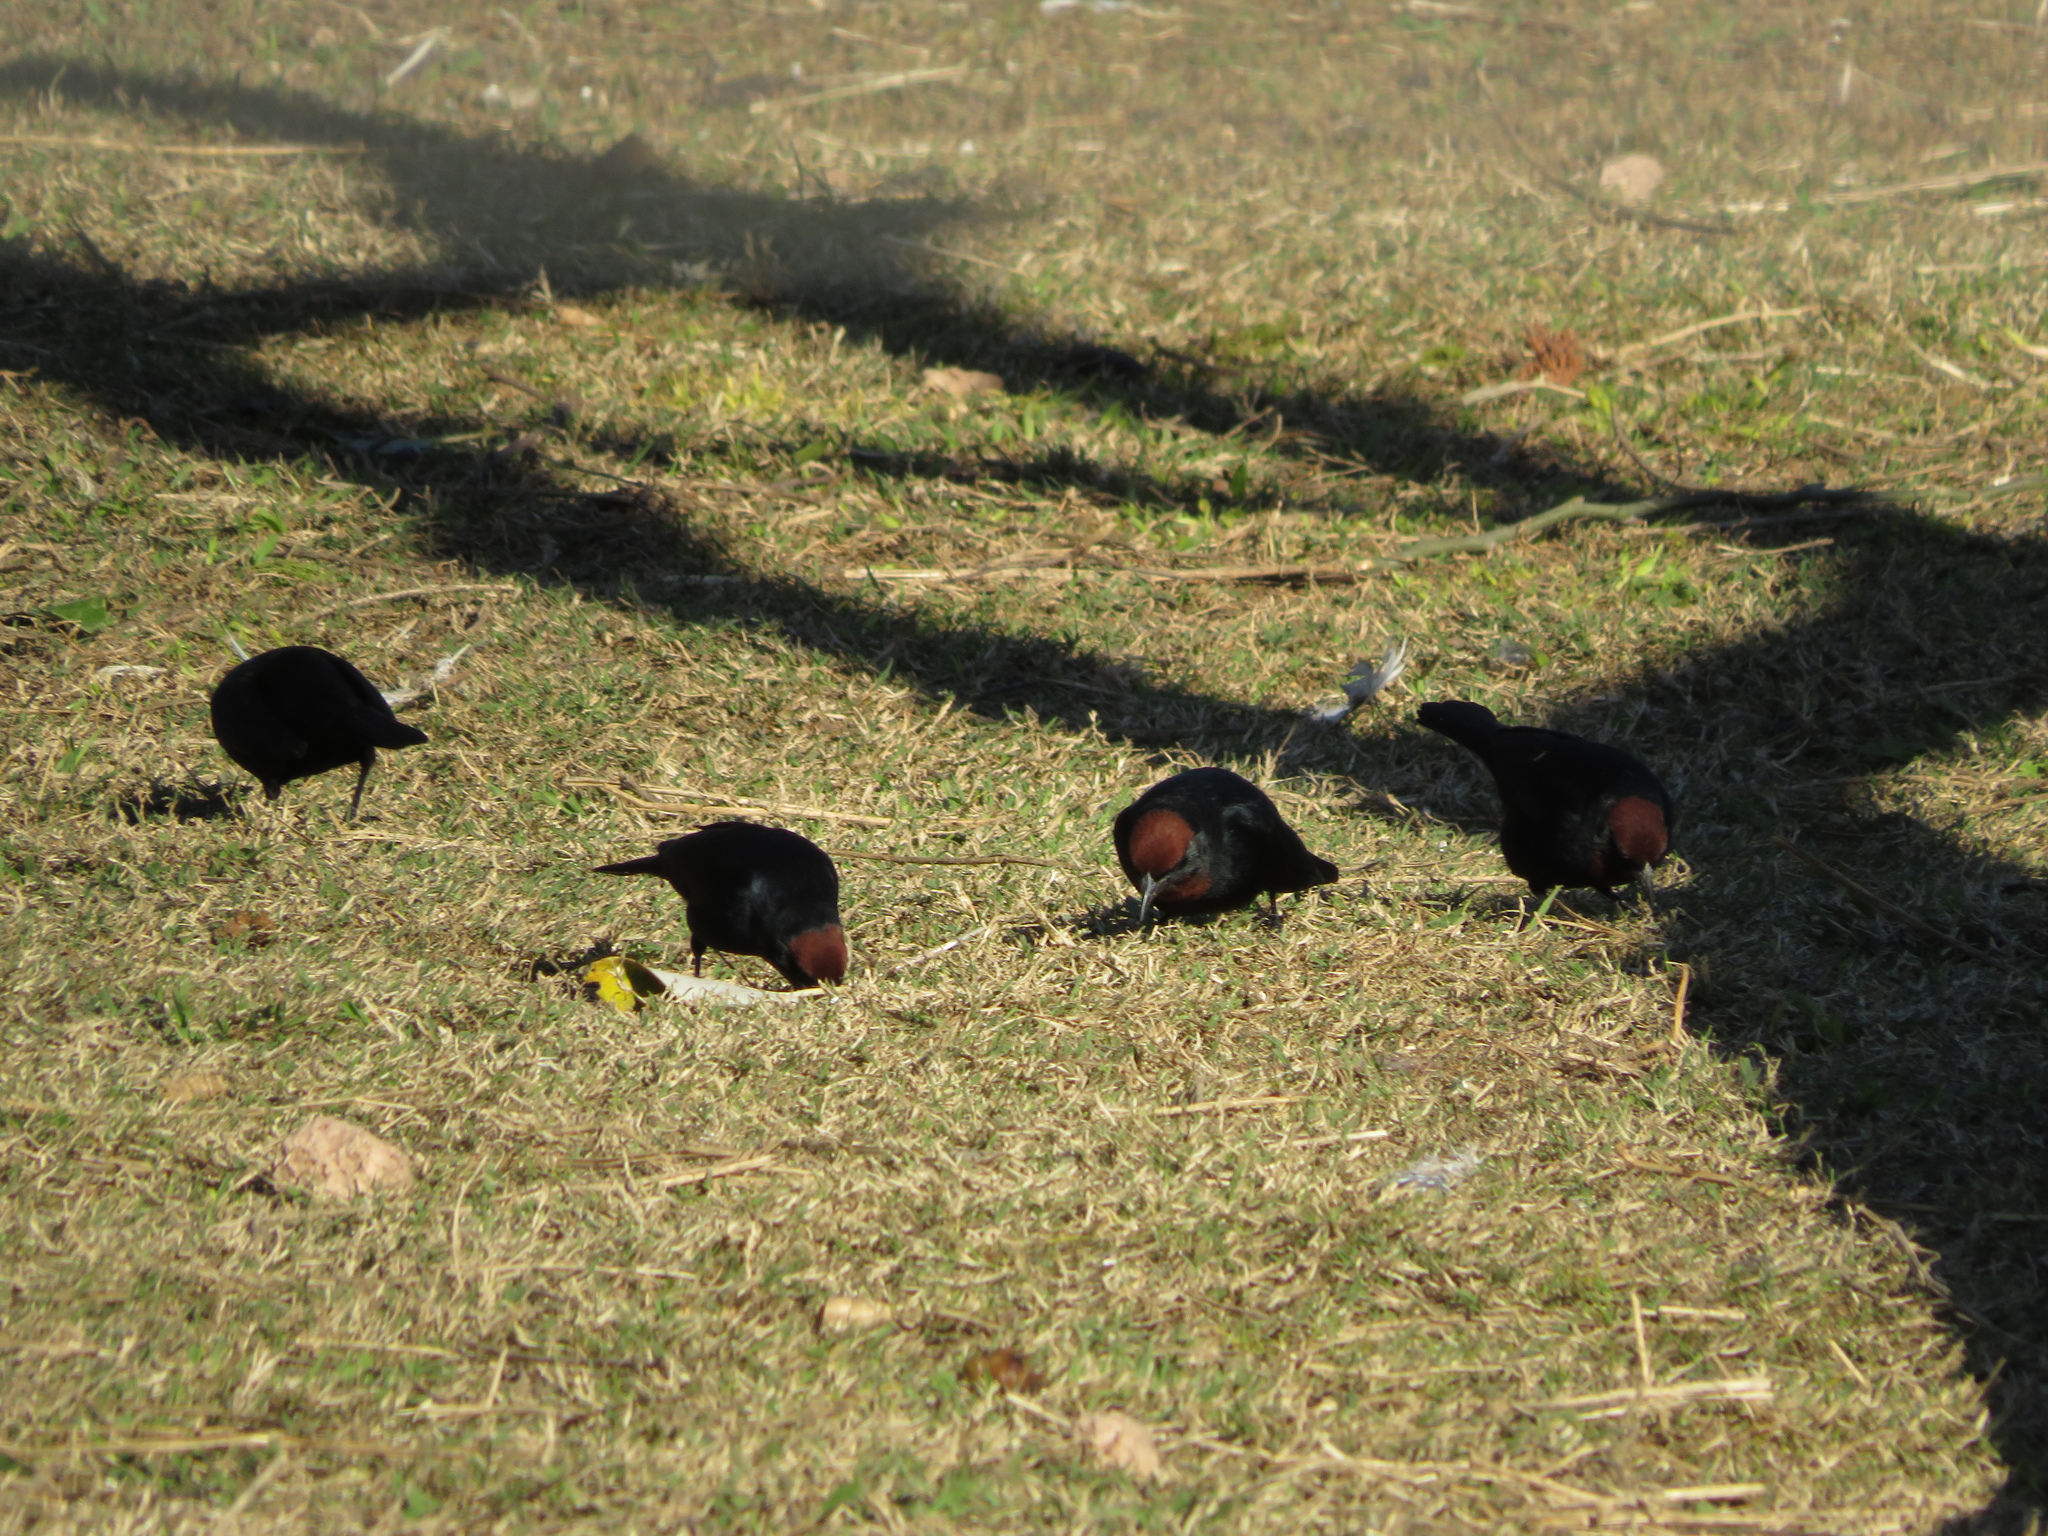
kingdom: Animalia
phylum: Chordata
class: Aves
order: Passeriformes
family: Icteridae
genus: Chrysomus
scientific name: Chrysomus ruficapillus
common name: Chestnut-capped blackbird
